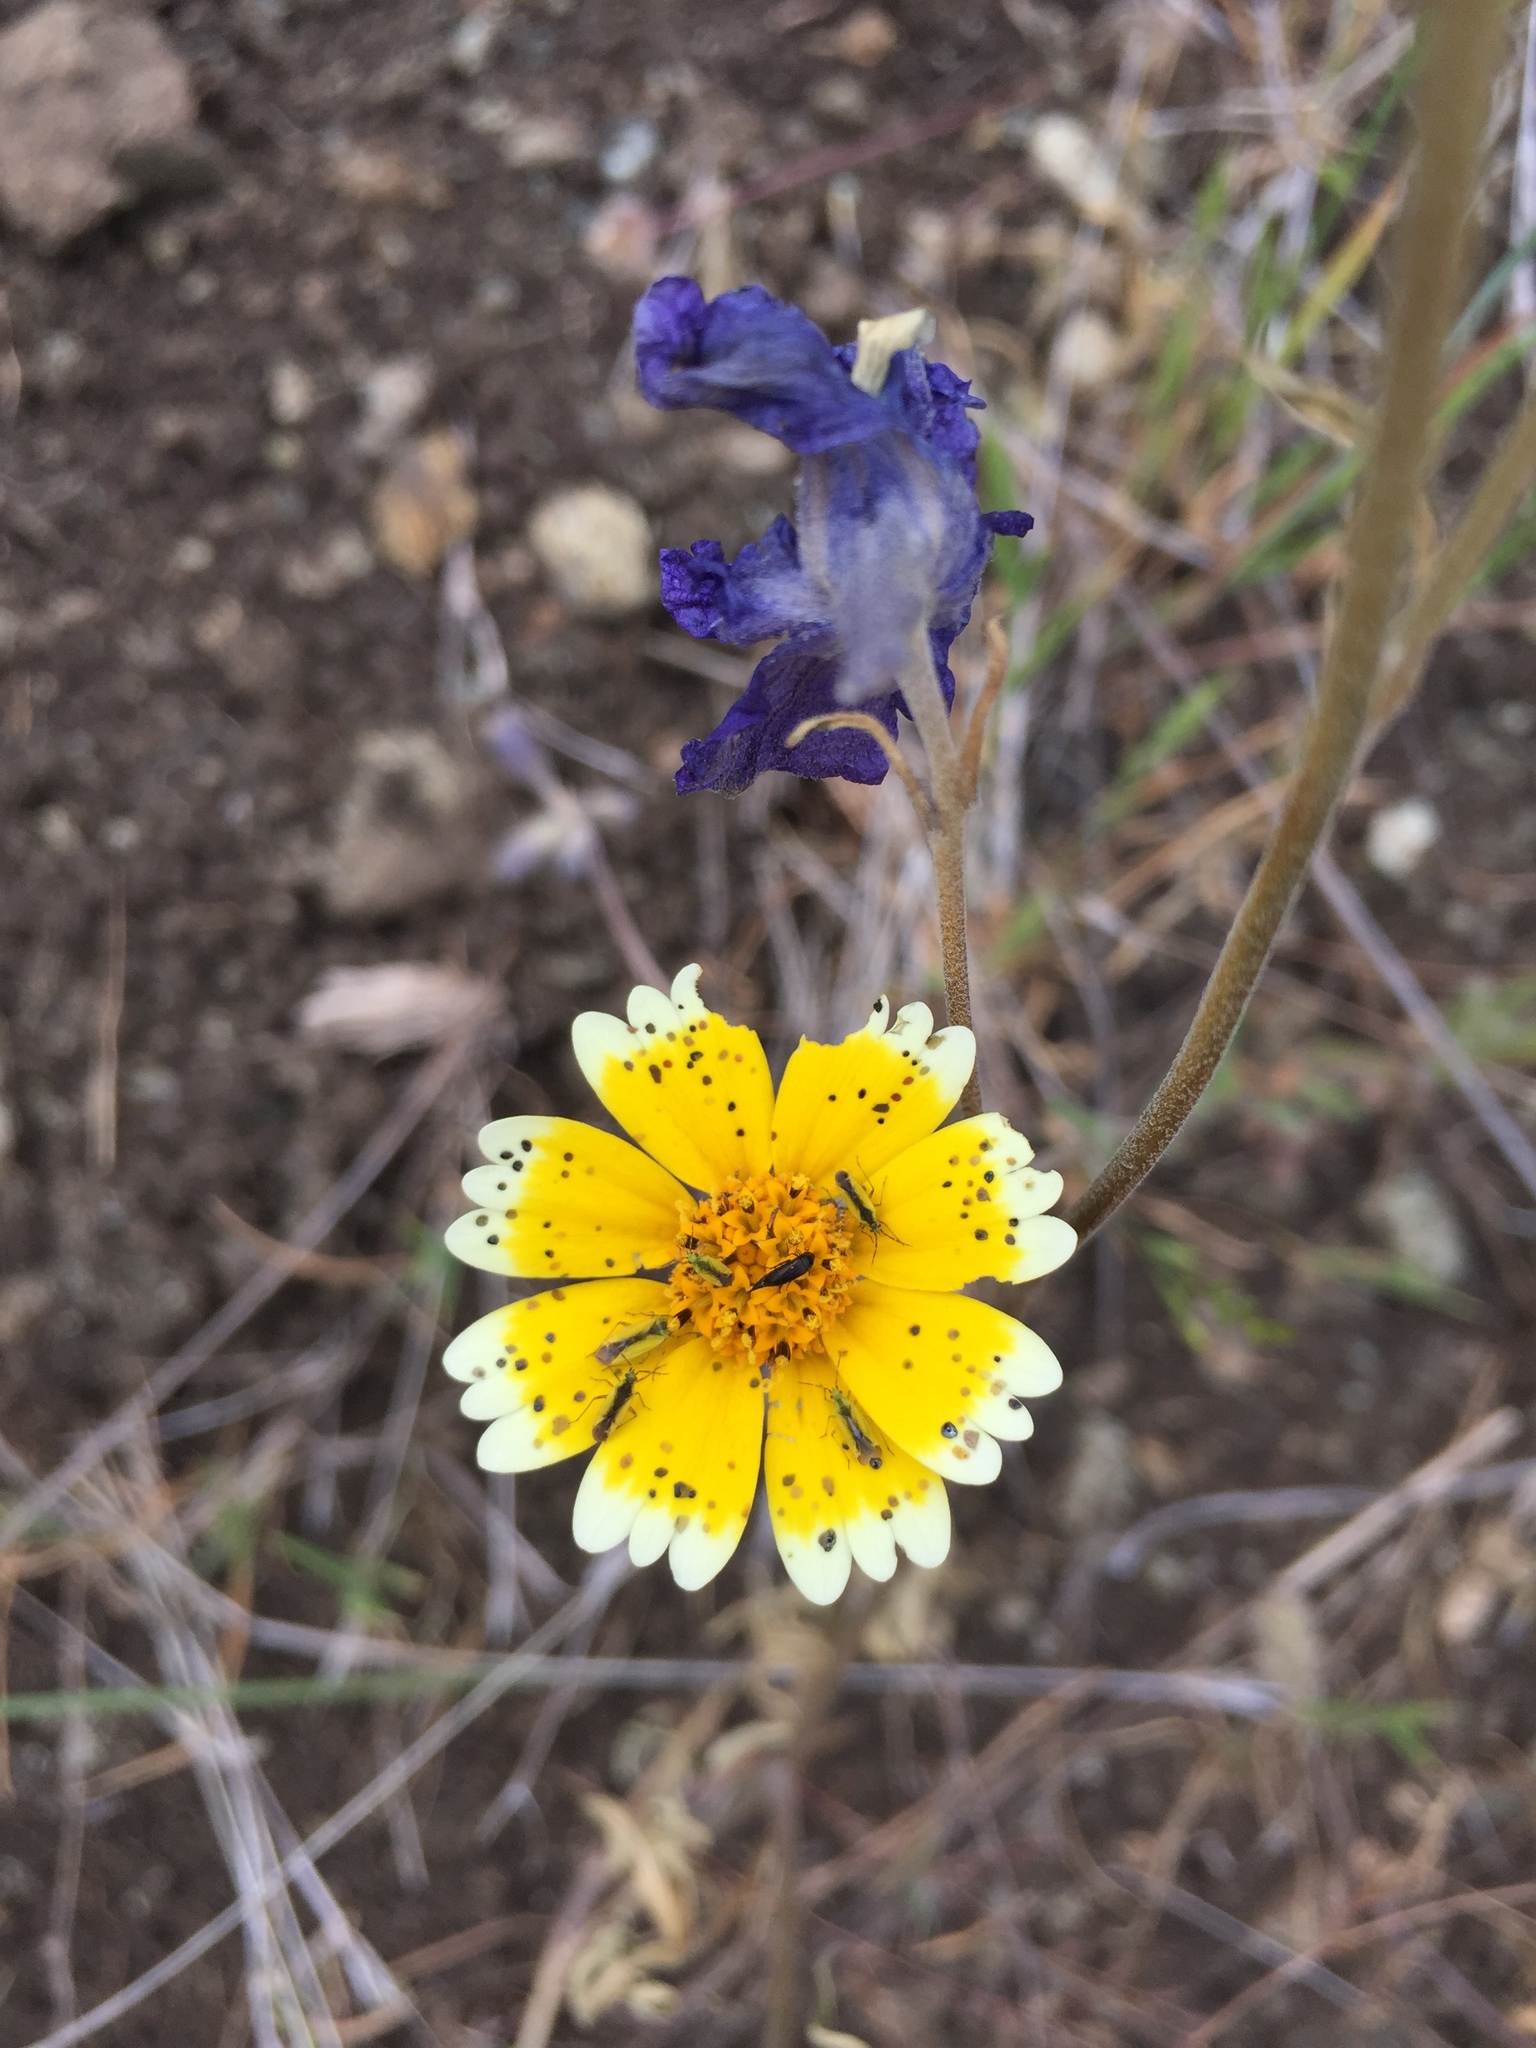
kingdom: Plantae
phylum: Tracheophyta
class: Magnoliopsida
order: Asterales
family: Asteraceae
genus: Layia
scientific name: Layia platyglossa
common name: Tidy-tips
